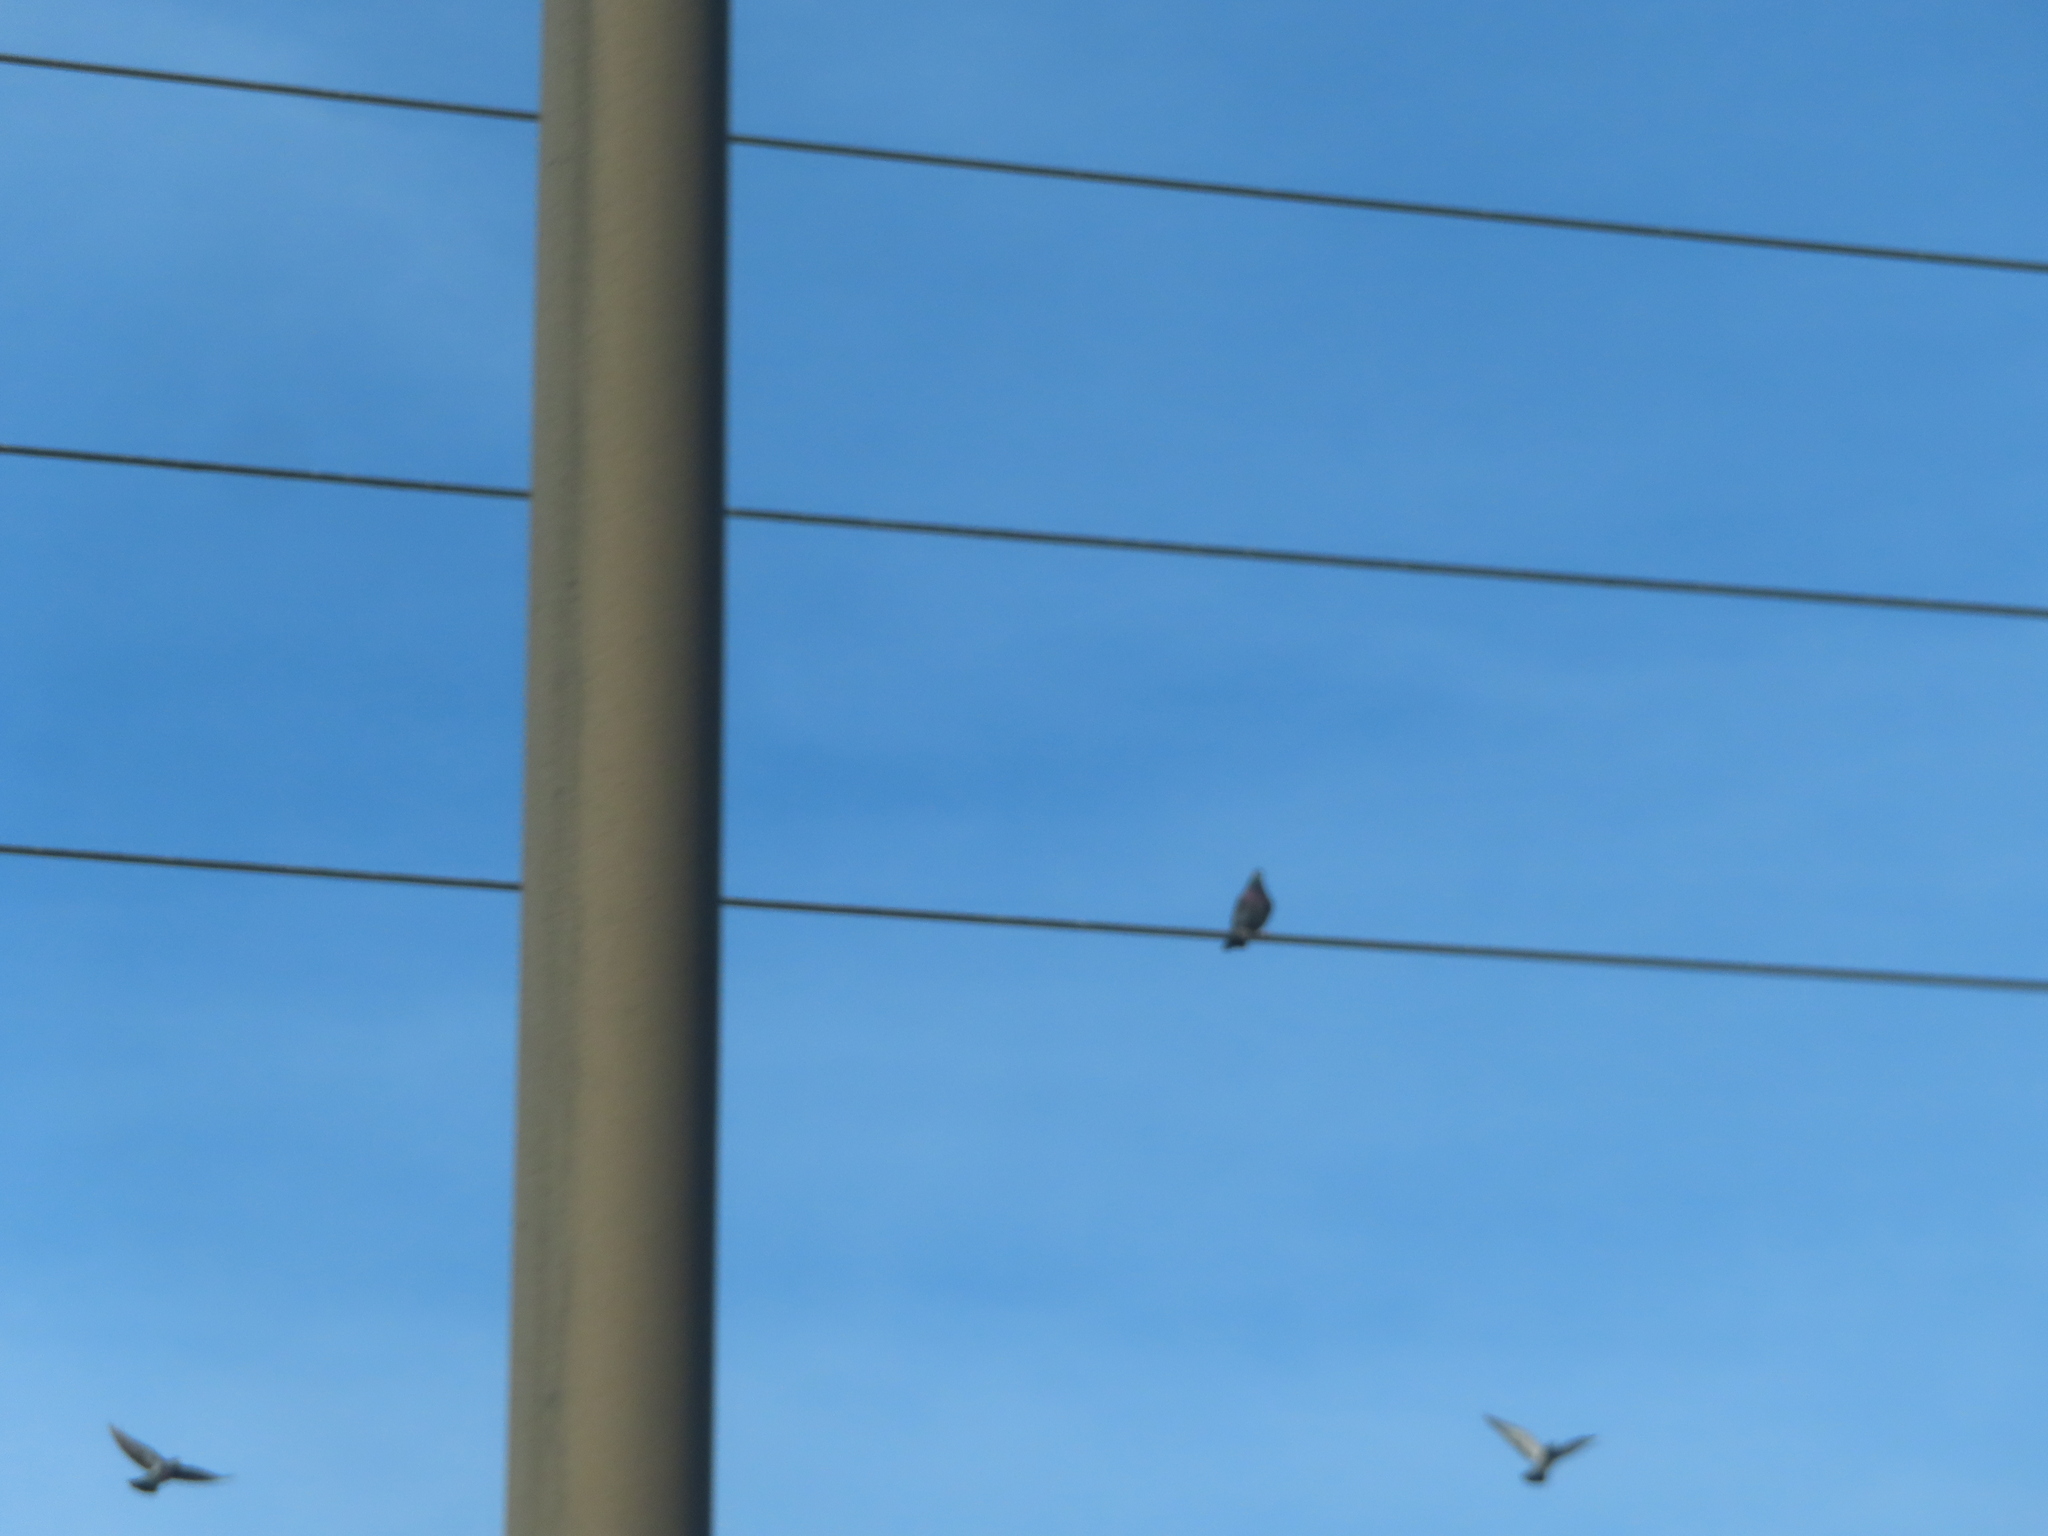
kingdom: Animalia
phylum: Chordata
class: Aves
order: Columbiformes
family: Columbidae
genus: Columba
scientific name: Columba livia
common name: Rock pigeon
